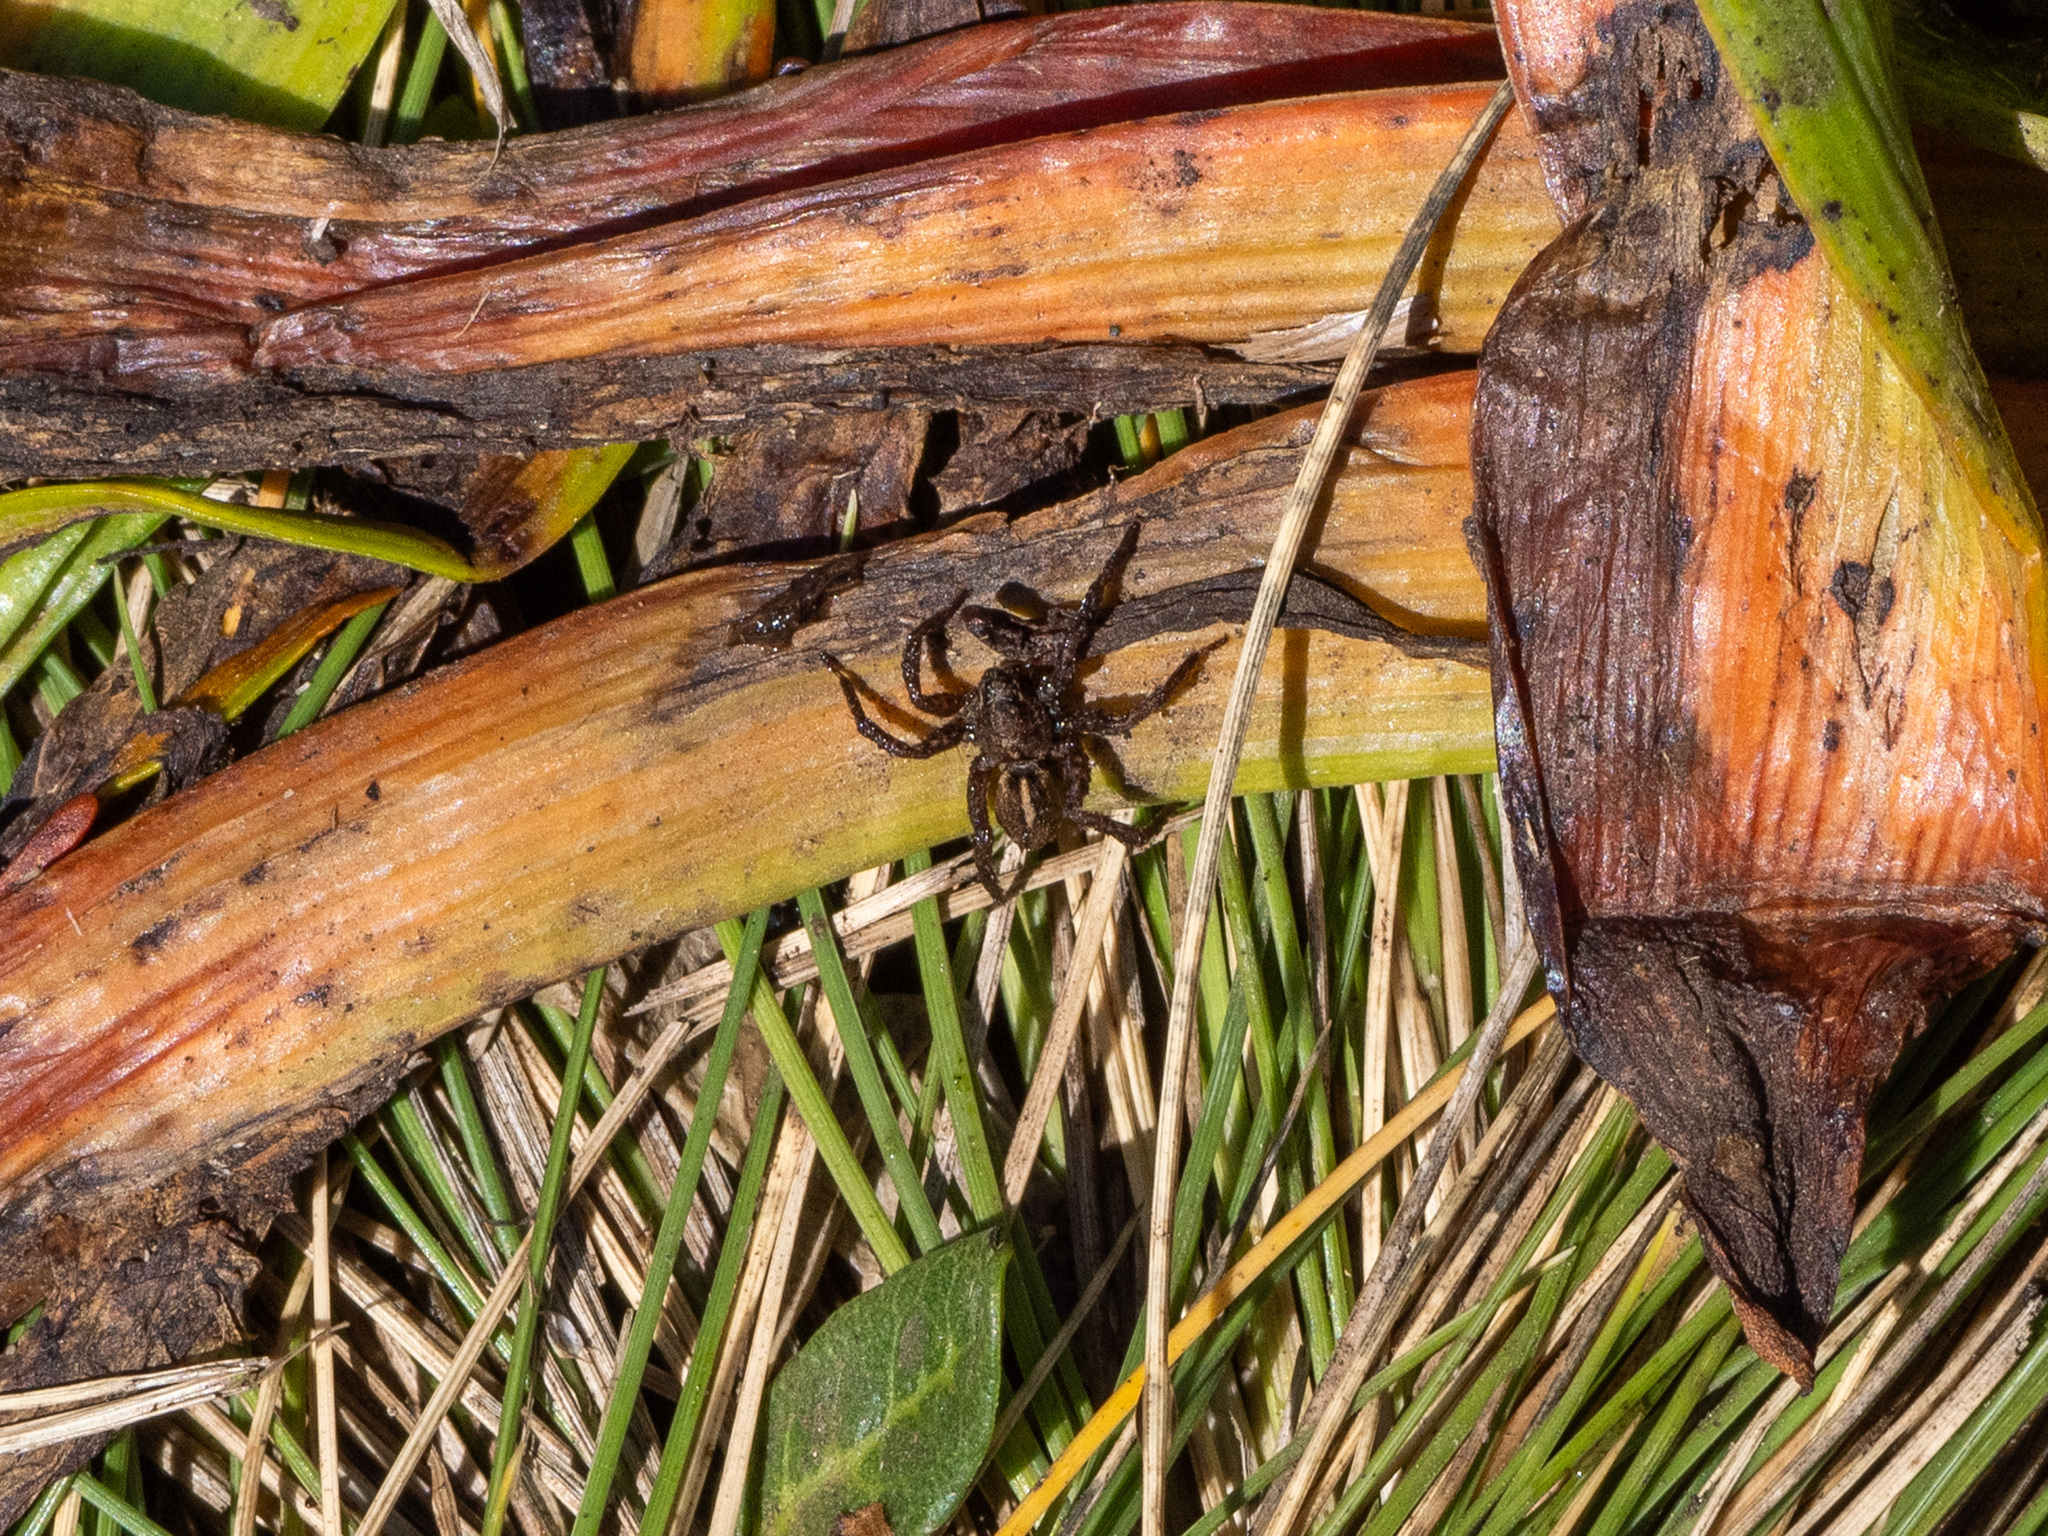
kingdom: Animalia
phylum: Arthropoda
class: Arachnida
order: Araneae
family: Lycosidae
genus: Anoteropsis
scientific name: Anoteropsis hilaris
